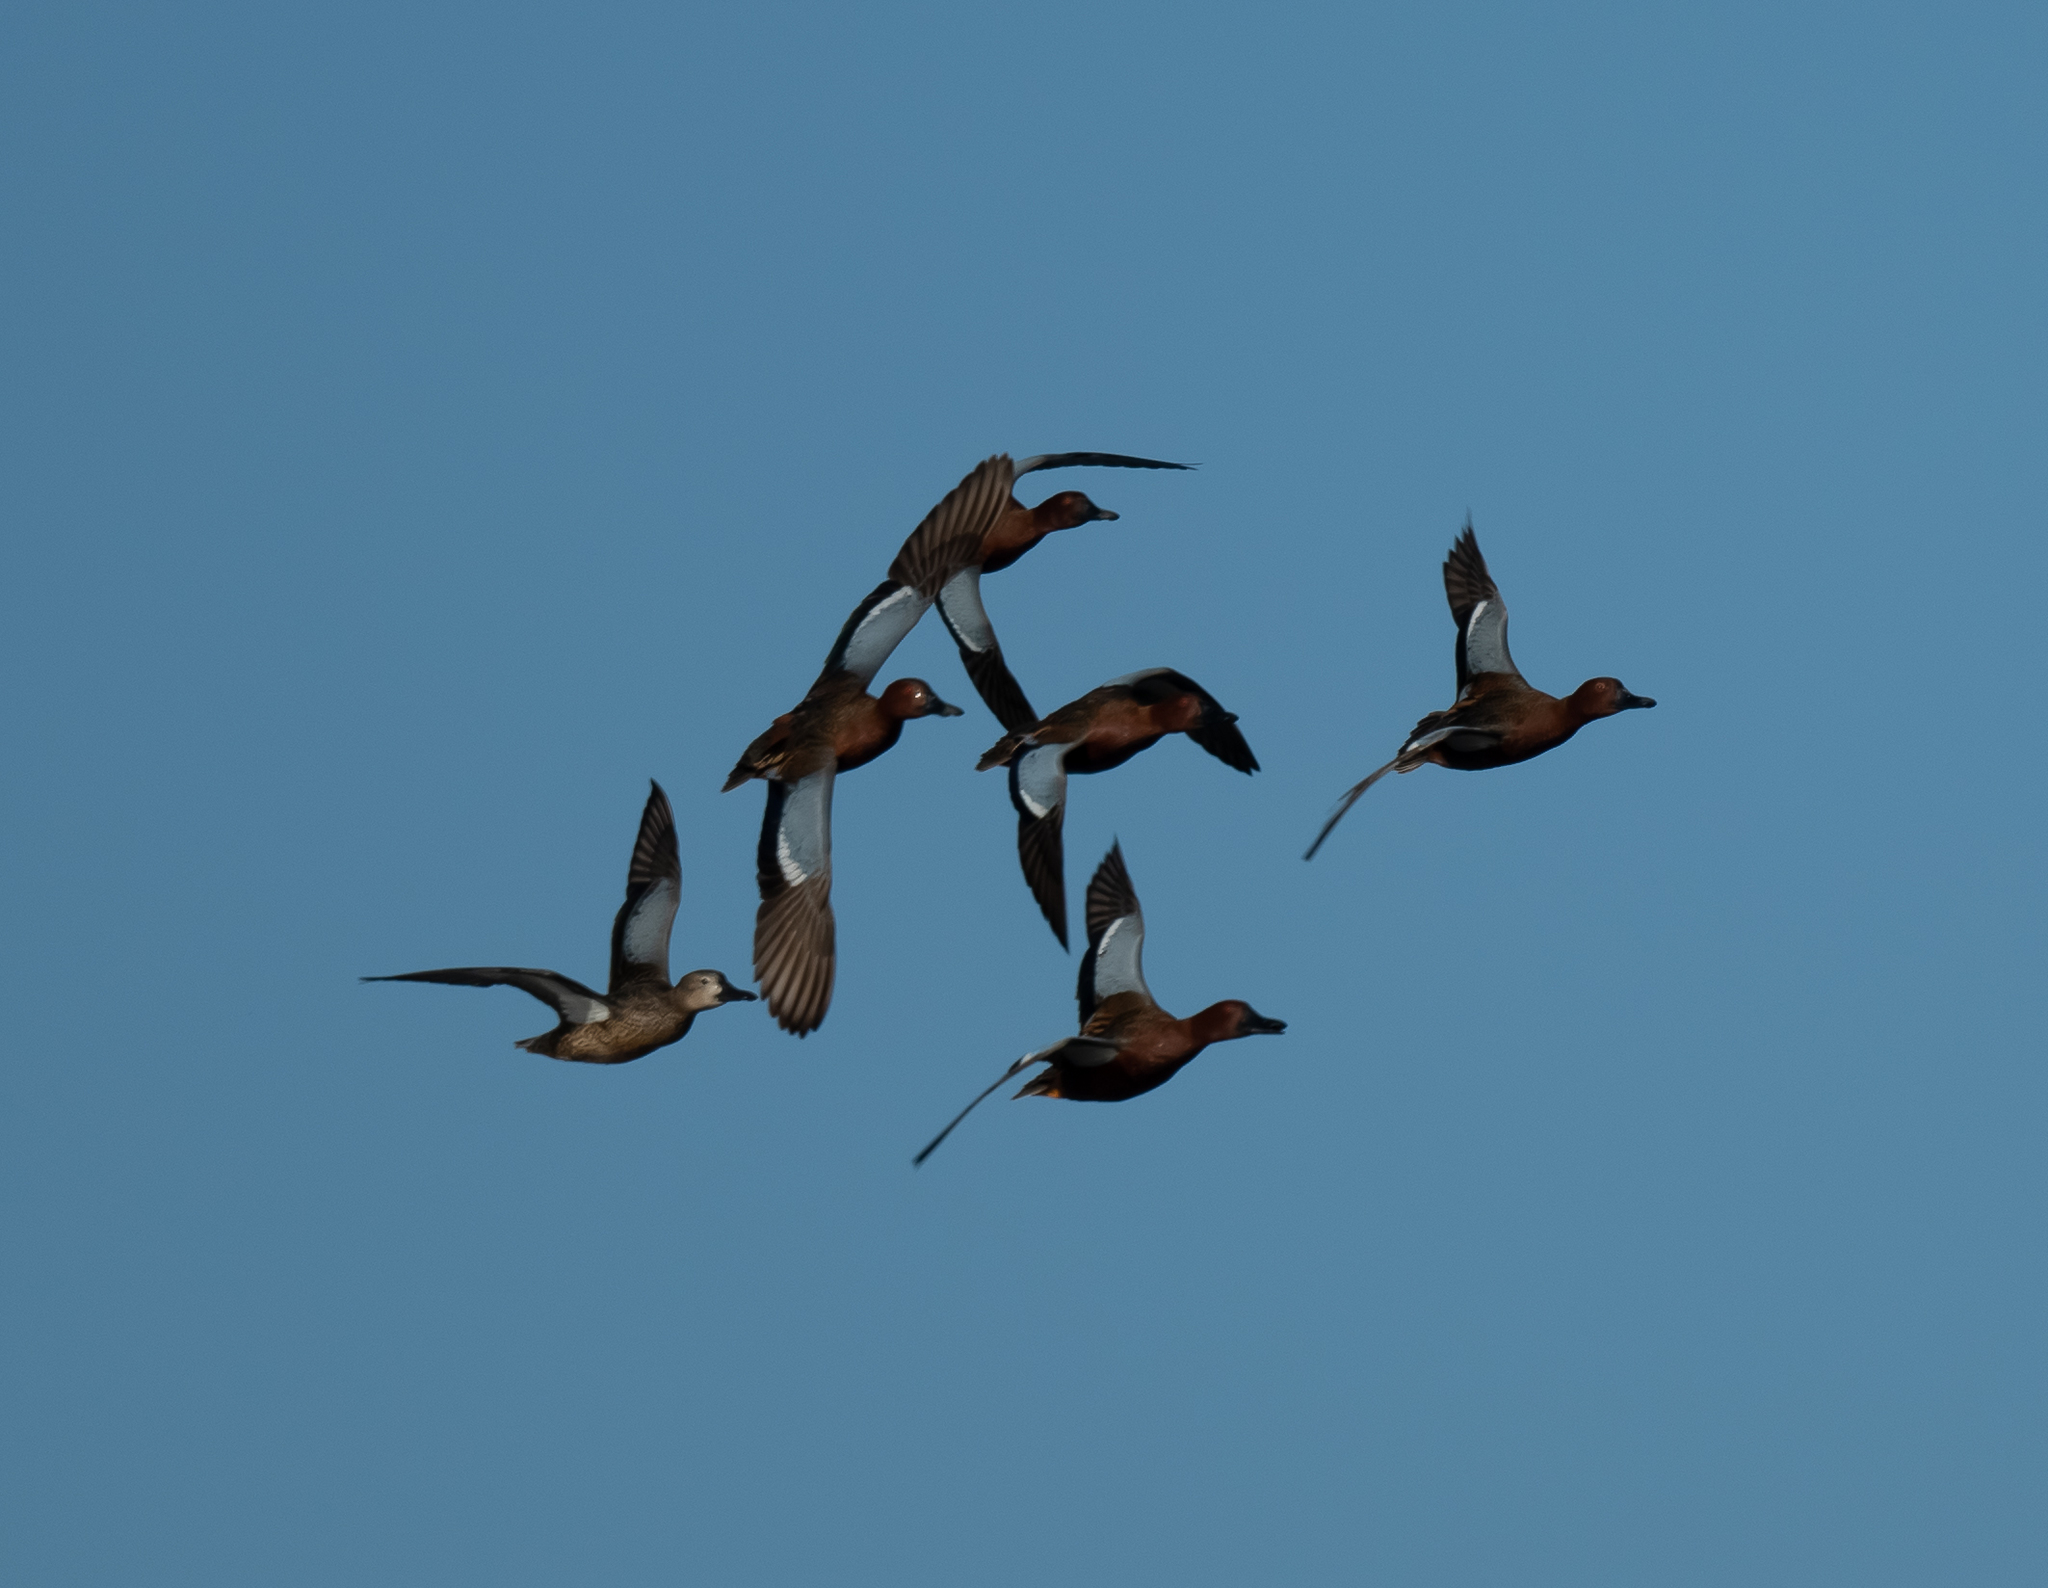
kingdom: Animalia
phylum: Chordata
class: Aves
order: Anseriformes
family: Anatidae
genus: Spatula
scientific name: Spatula cyanoptera
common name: Cinnamon teal
